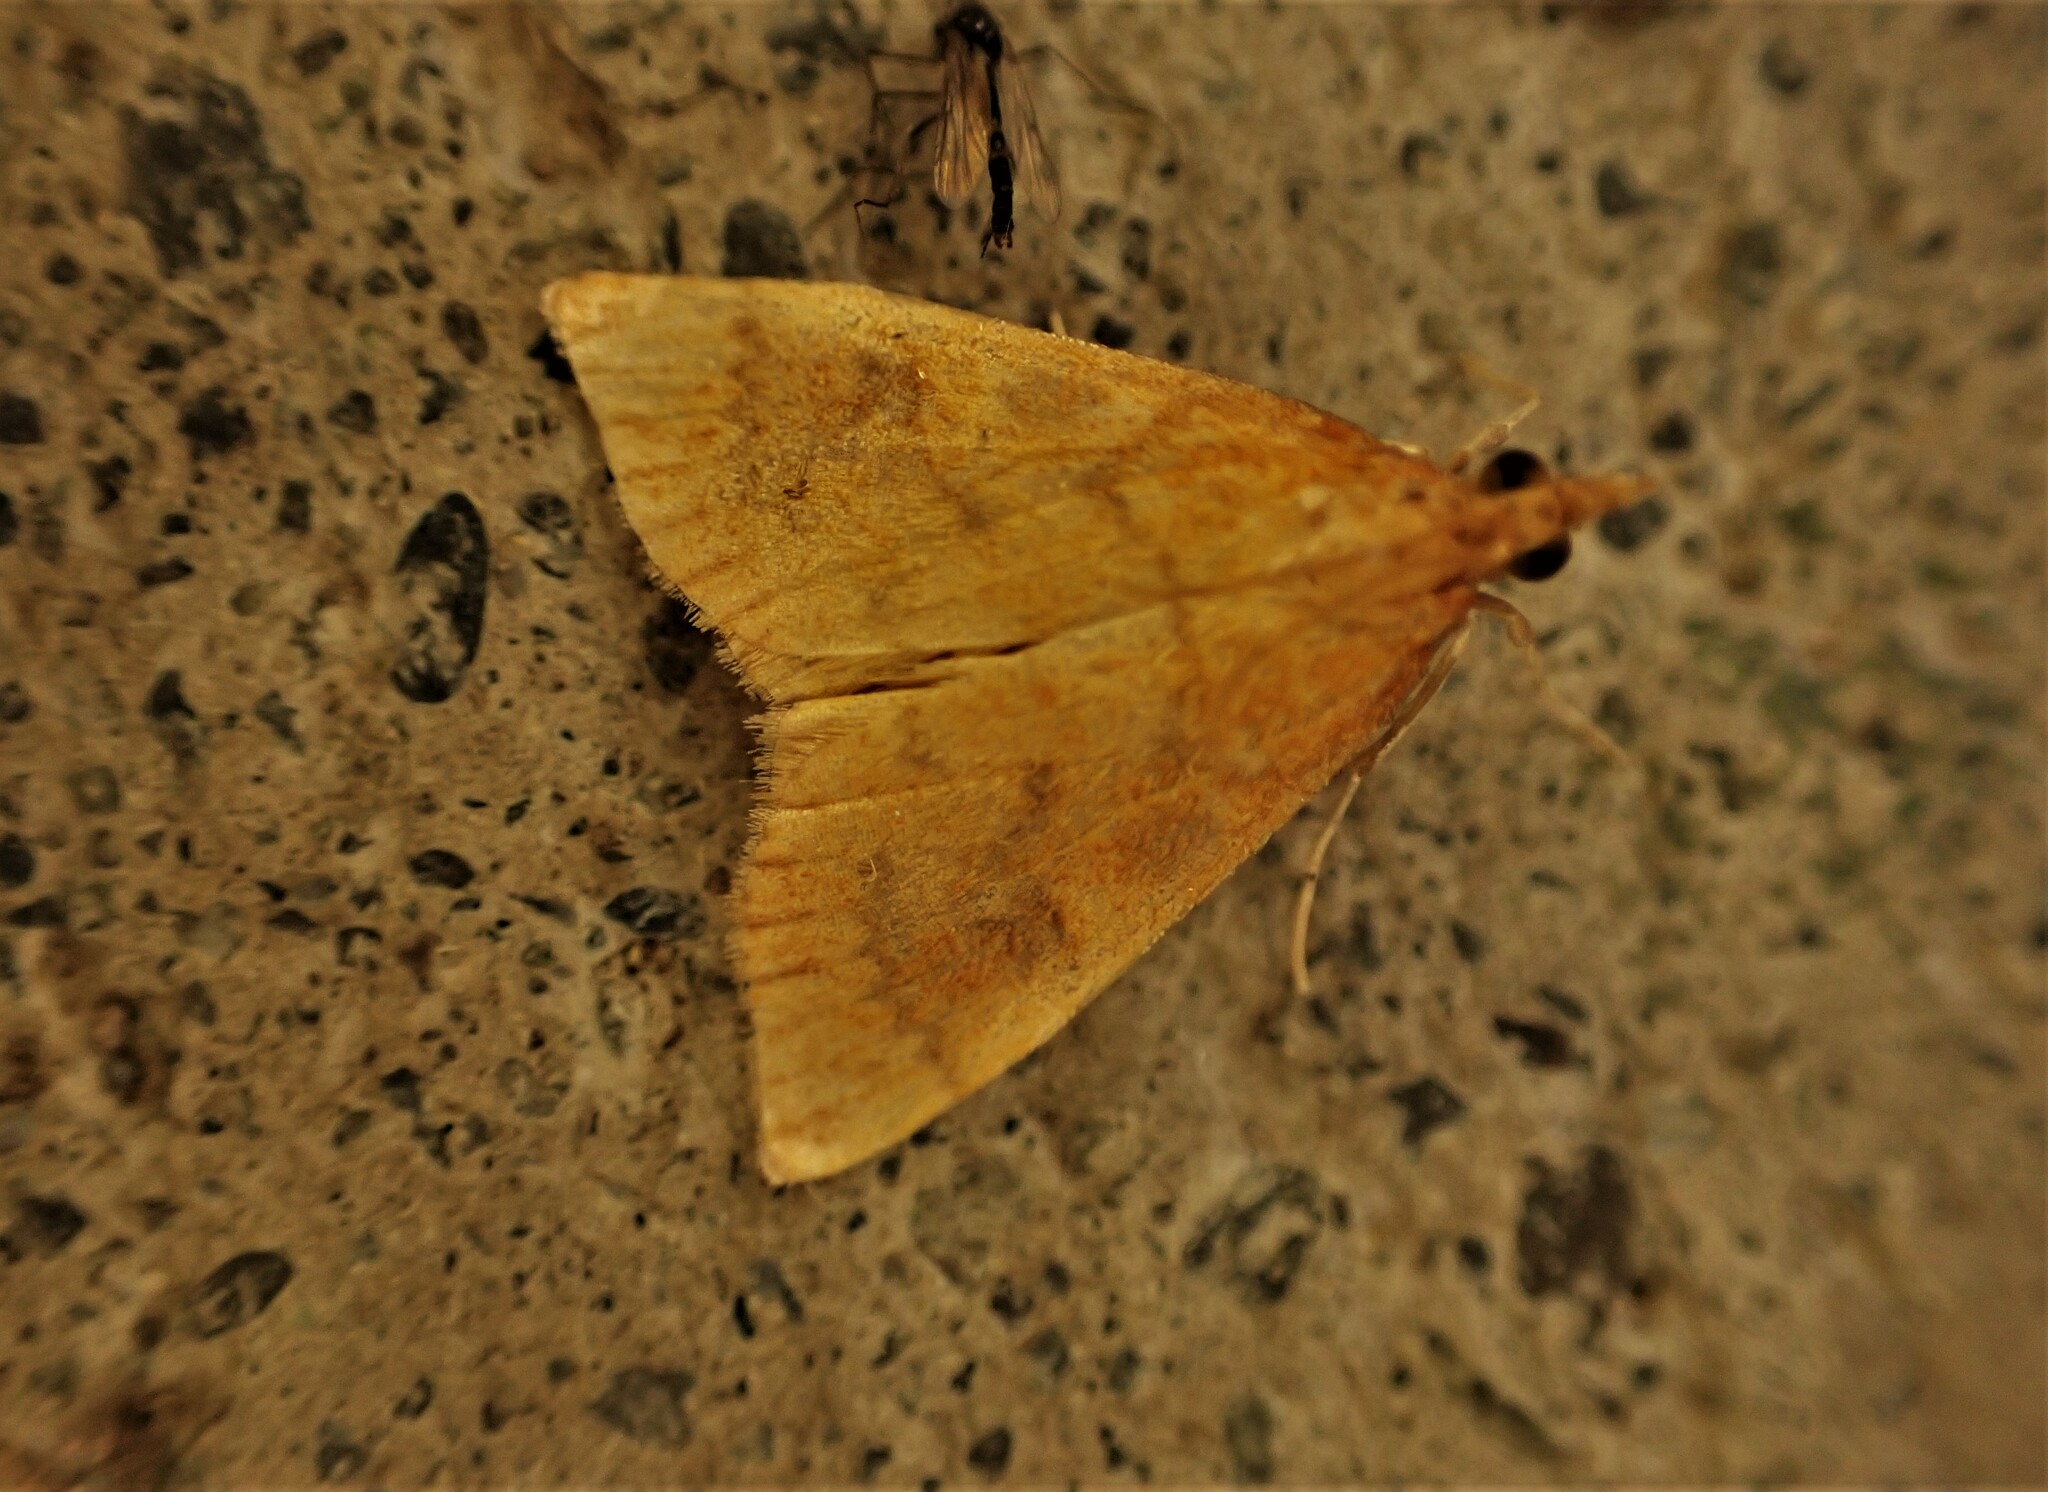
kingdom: Animalia
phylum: Arthropoda
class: Insecta
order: Lepidoptera
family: Crambidae
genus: Udea
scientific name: Udea Mnesictena flavidalis
